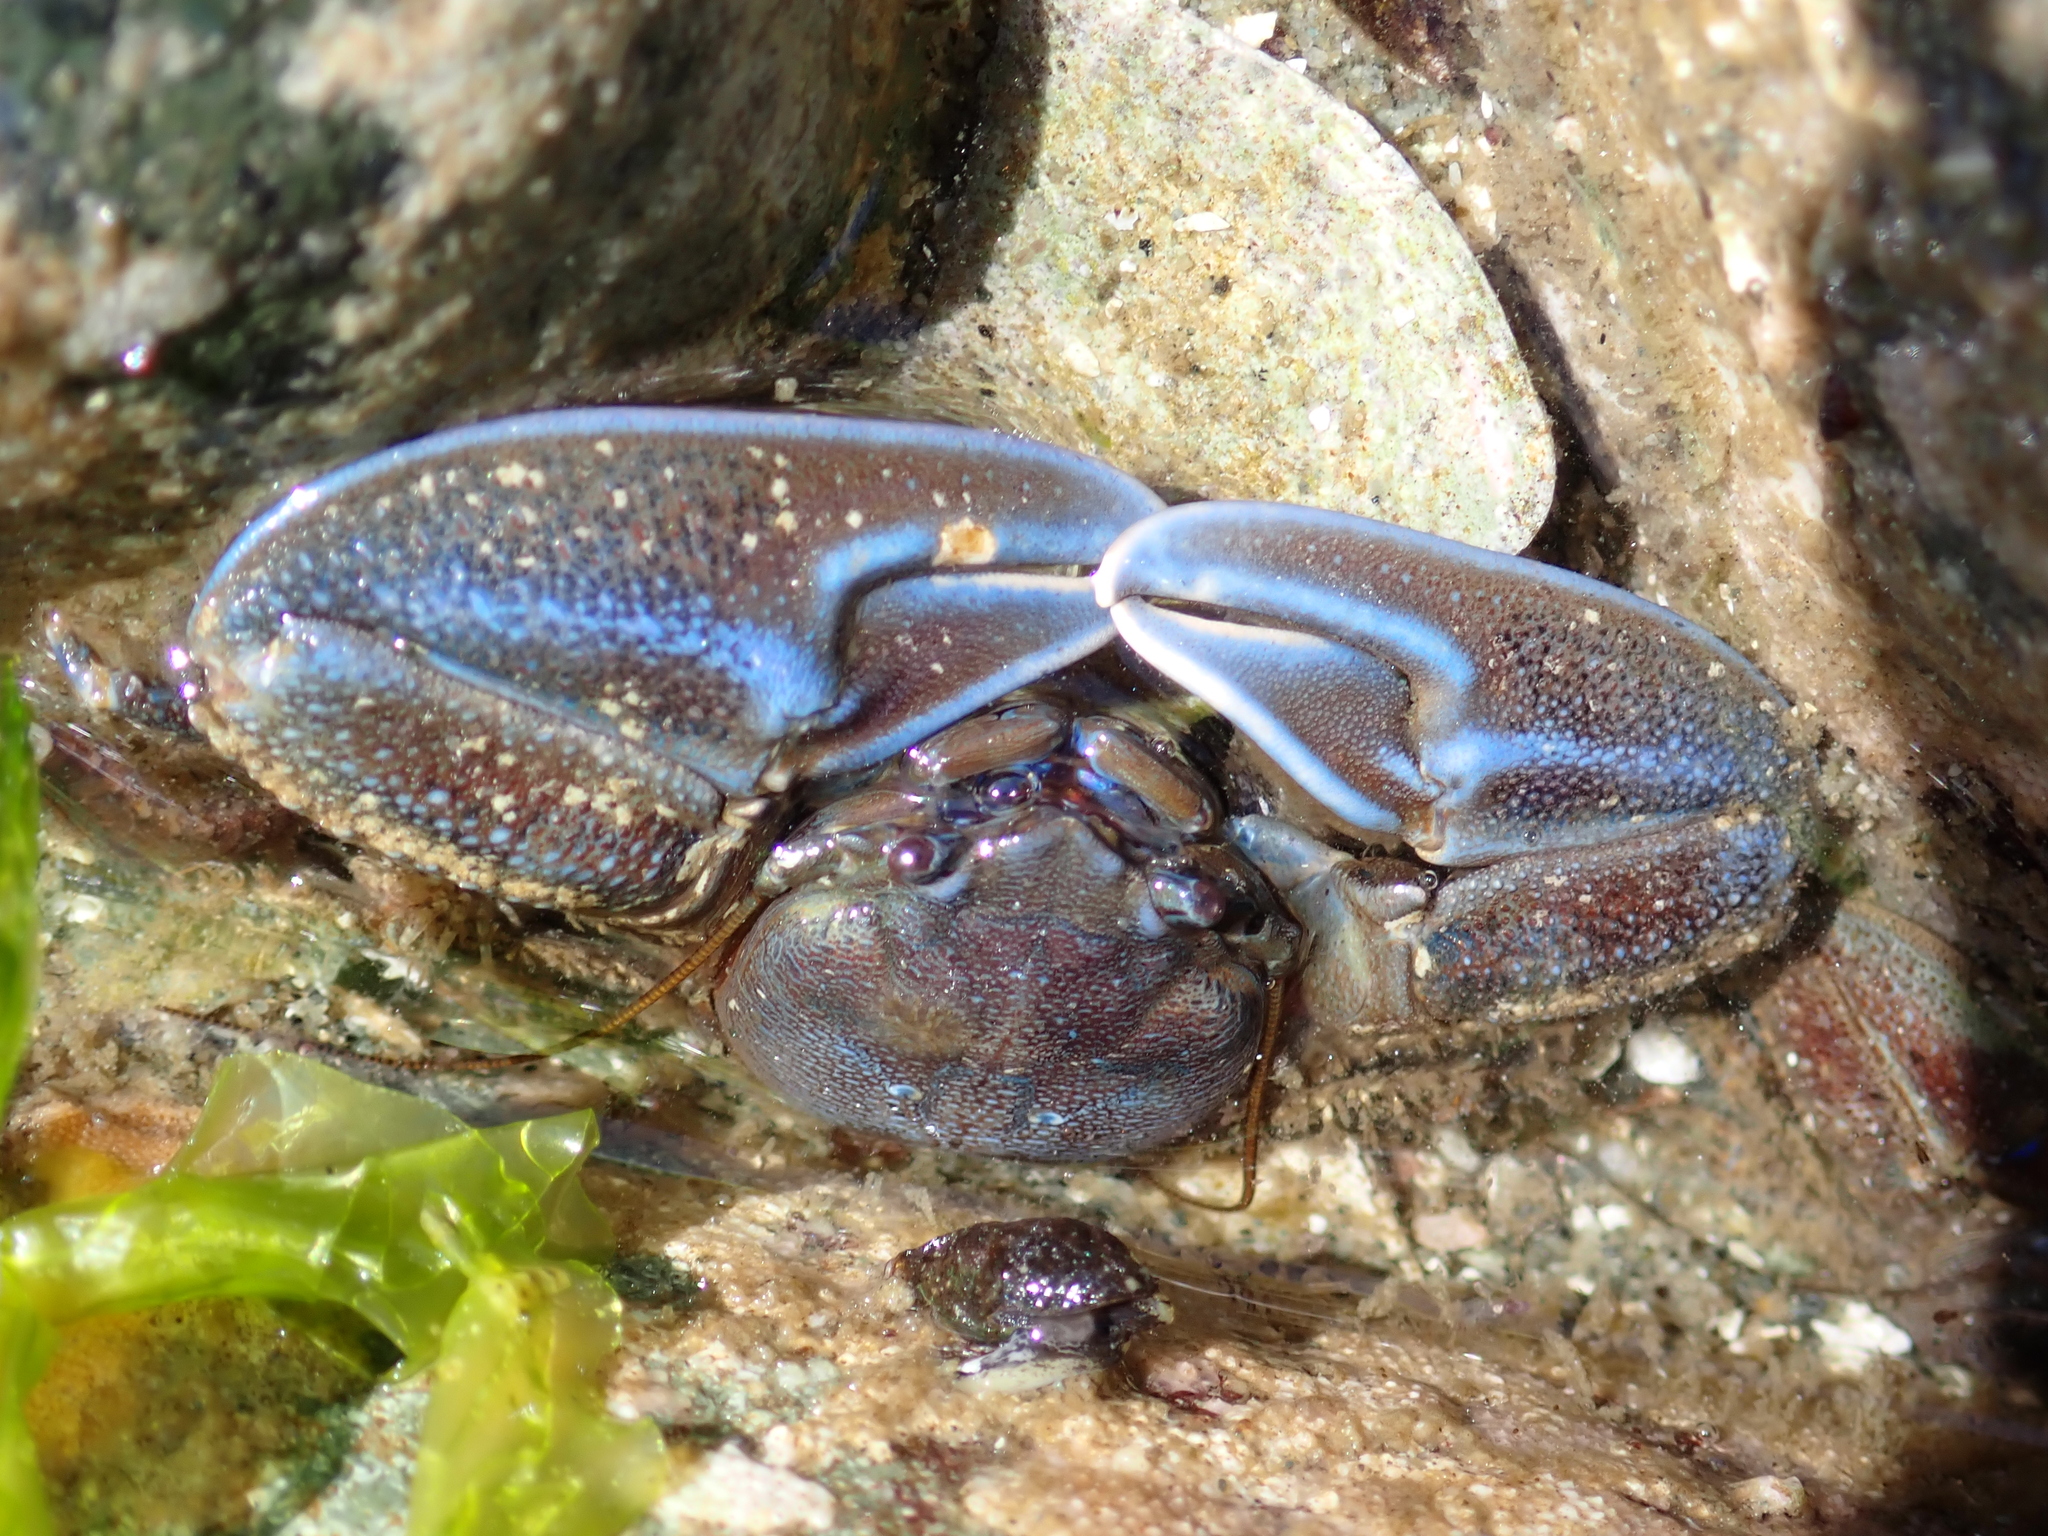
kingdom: Animalia
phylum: Arthropoda
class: Malacostraca
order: Decapoda
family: Porcellanidae
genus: Petrolisthes
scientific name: Petrolisthes eriomerus
